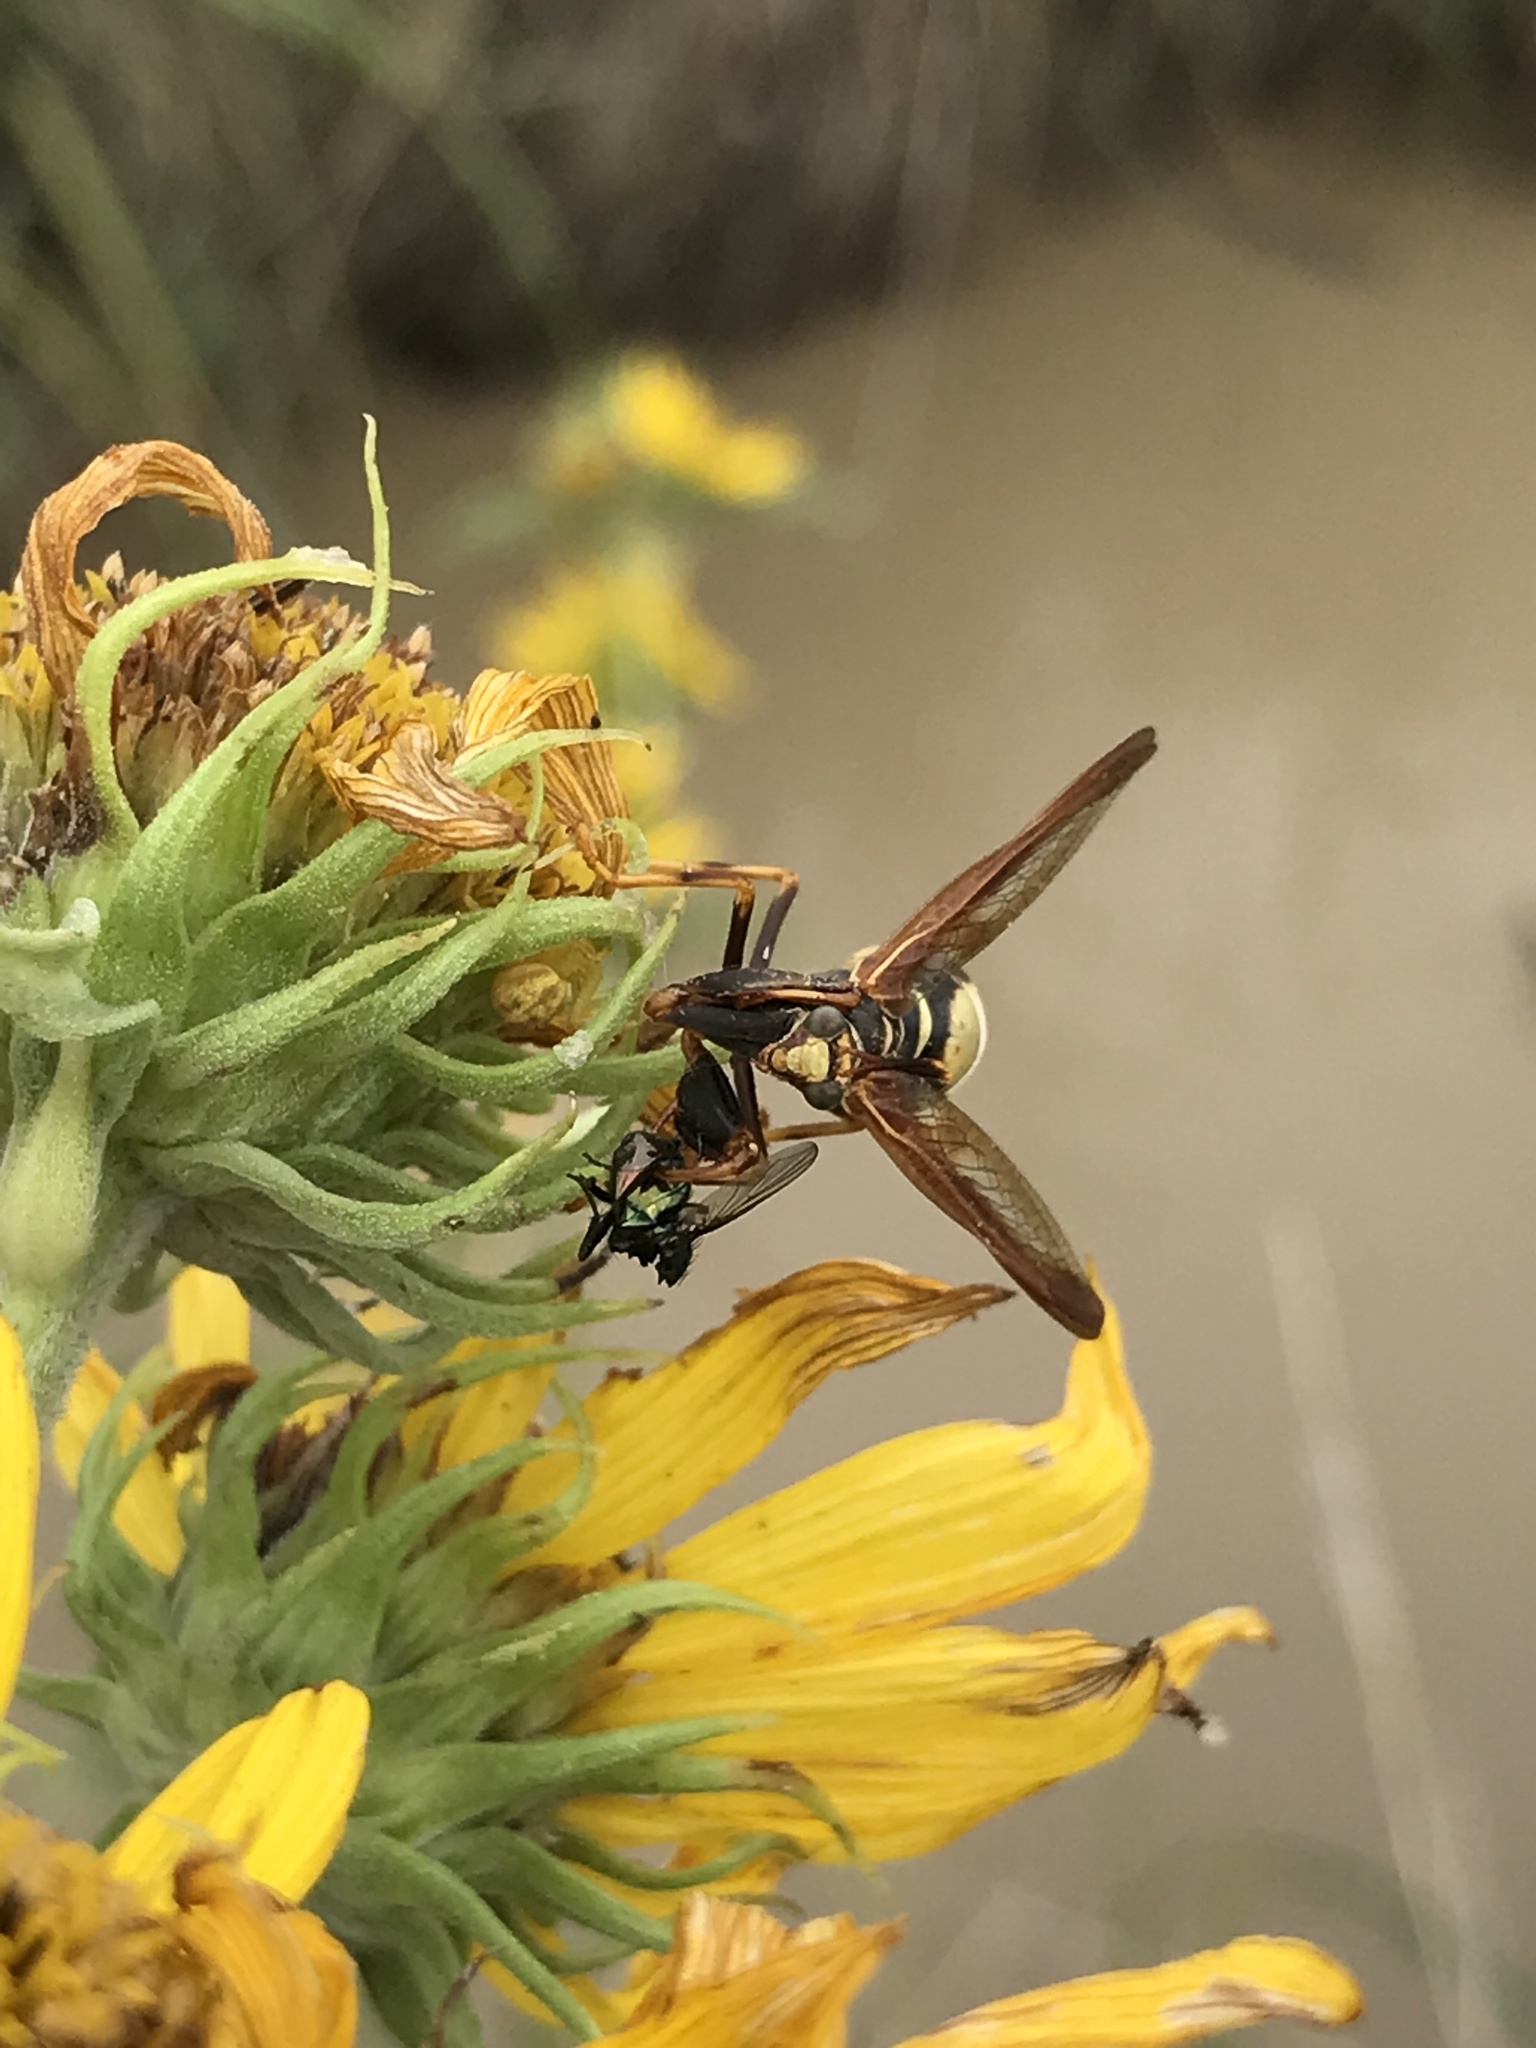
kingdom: Animalia
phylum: Arthropoda
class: Insecta
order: Neuroptera
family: Mantispidae
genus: Climaciella
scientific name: Climaciella brunnea
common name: Brown wasp mantidfly
